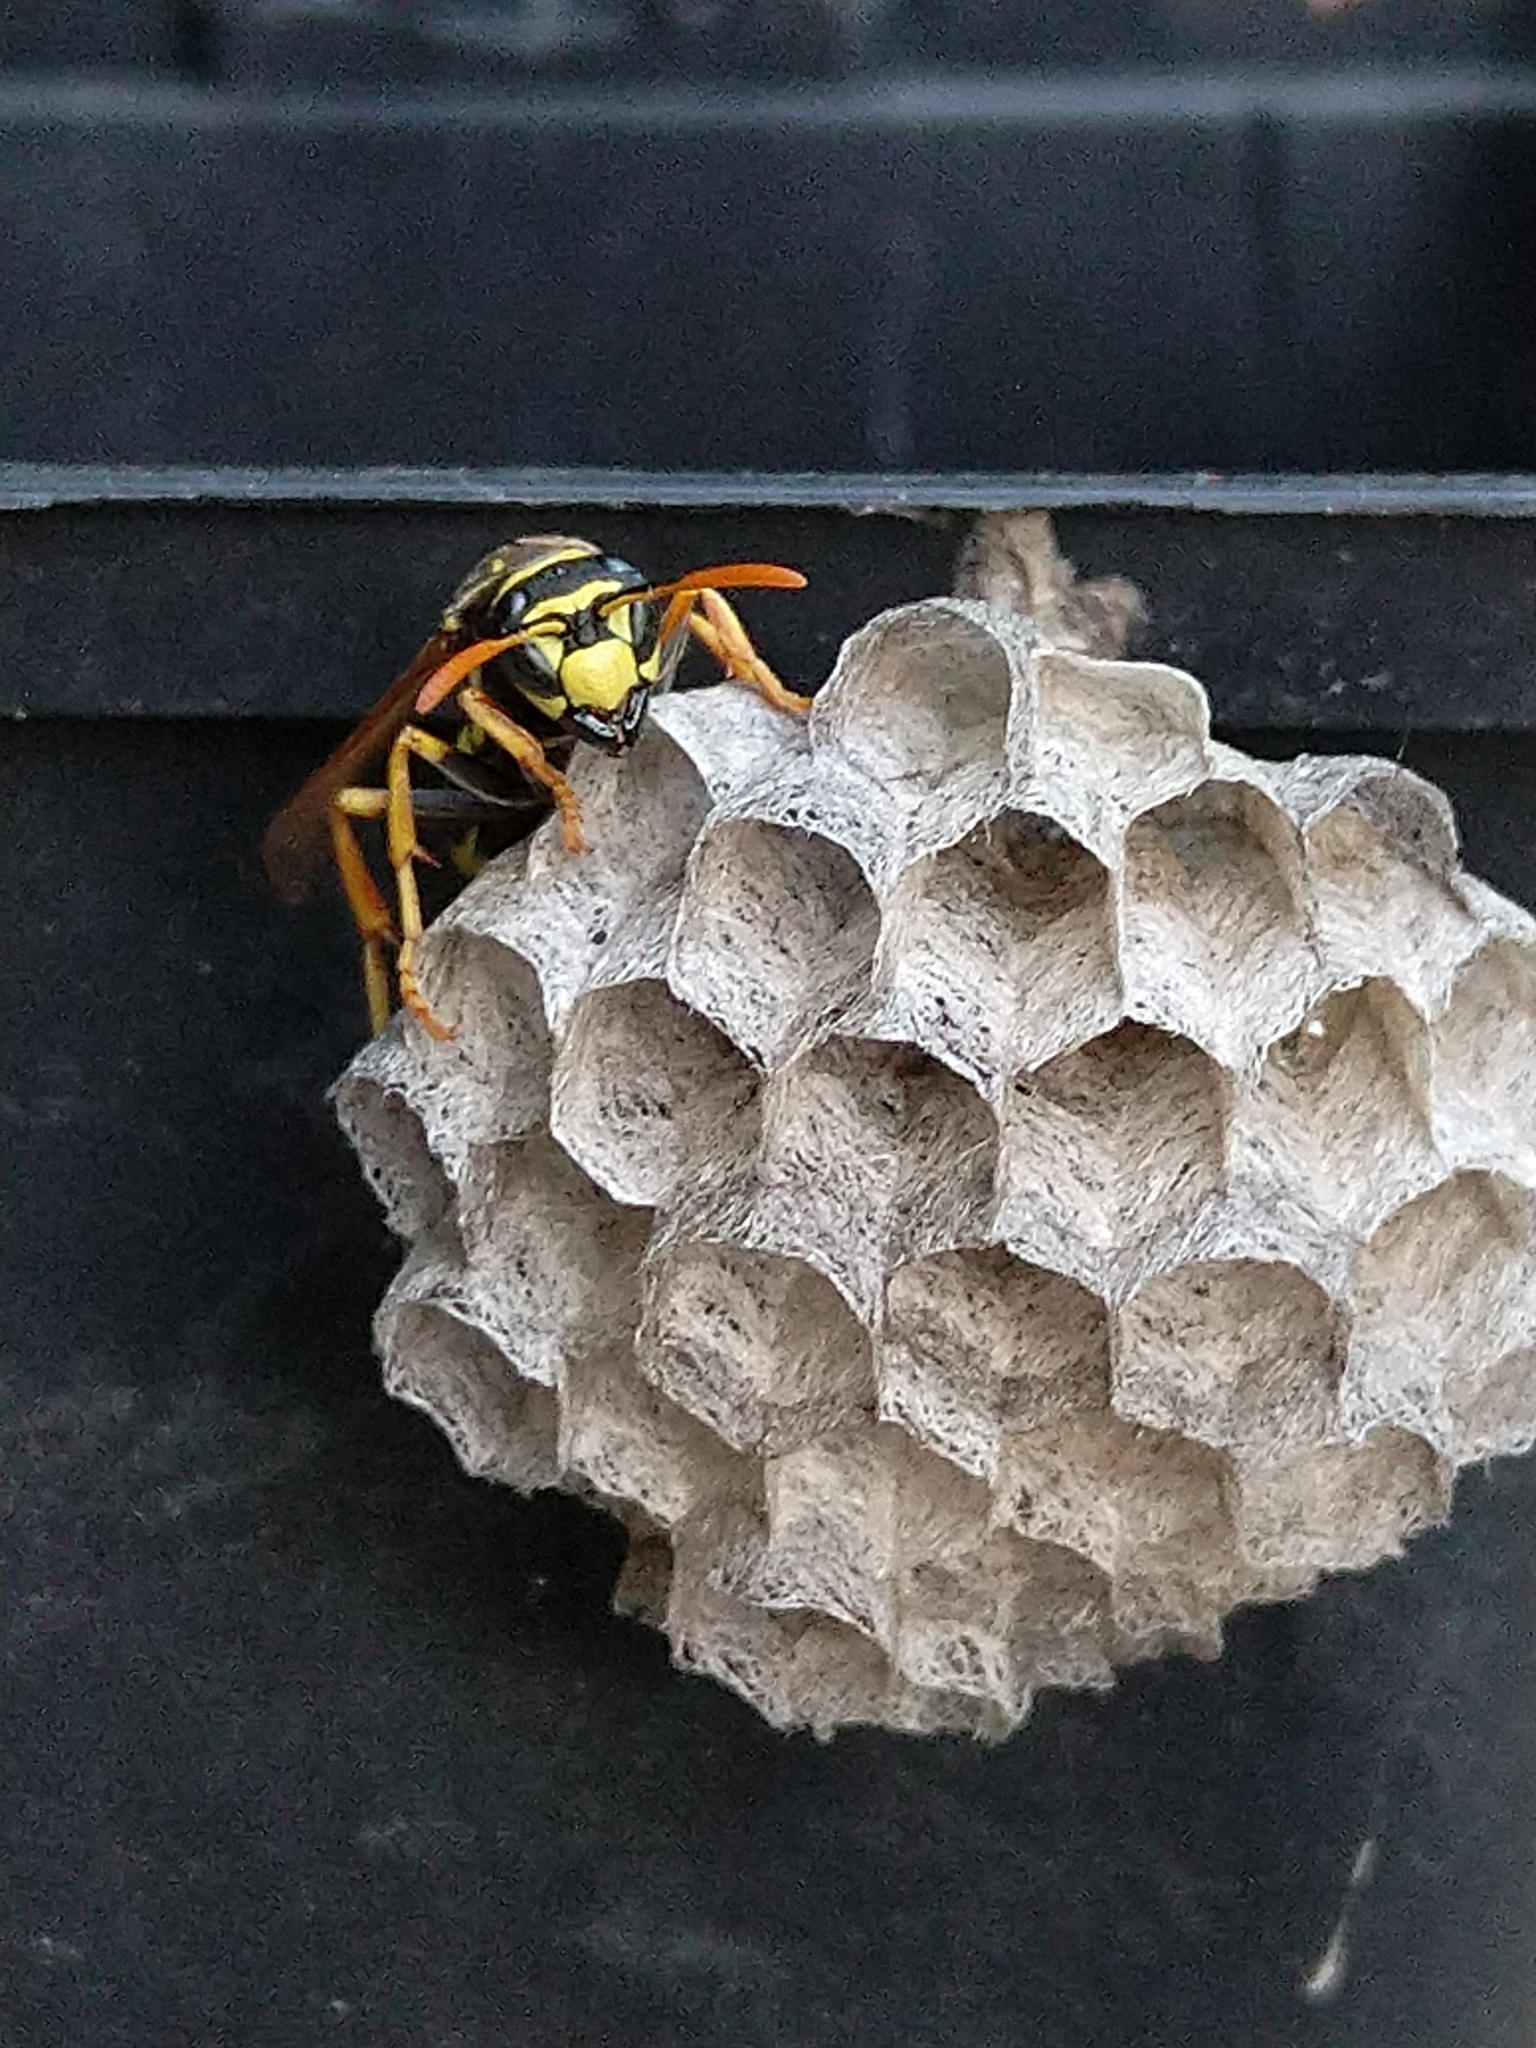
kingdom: Animalia
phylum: Arthropoda
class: Insecta
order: Hymenoptera
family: Eumenidae
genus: Polistes
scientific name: Polistes dominula
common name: Paper wasp
